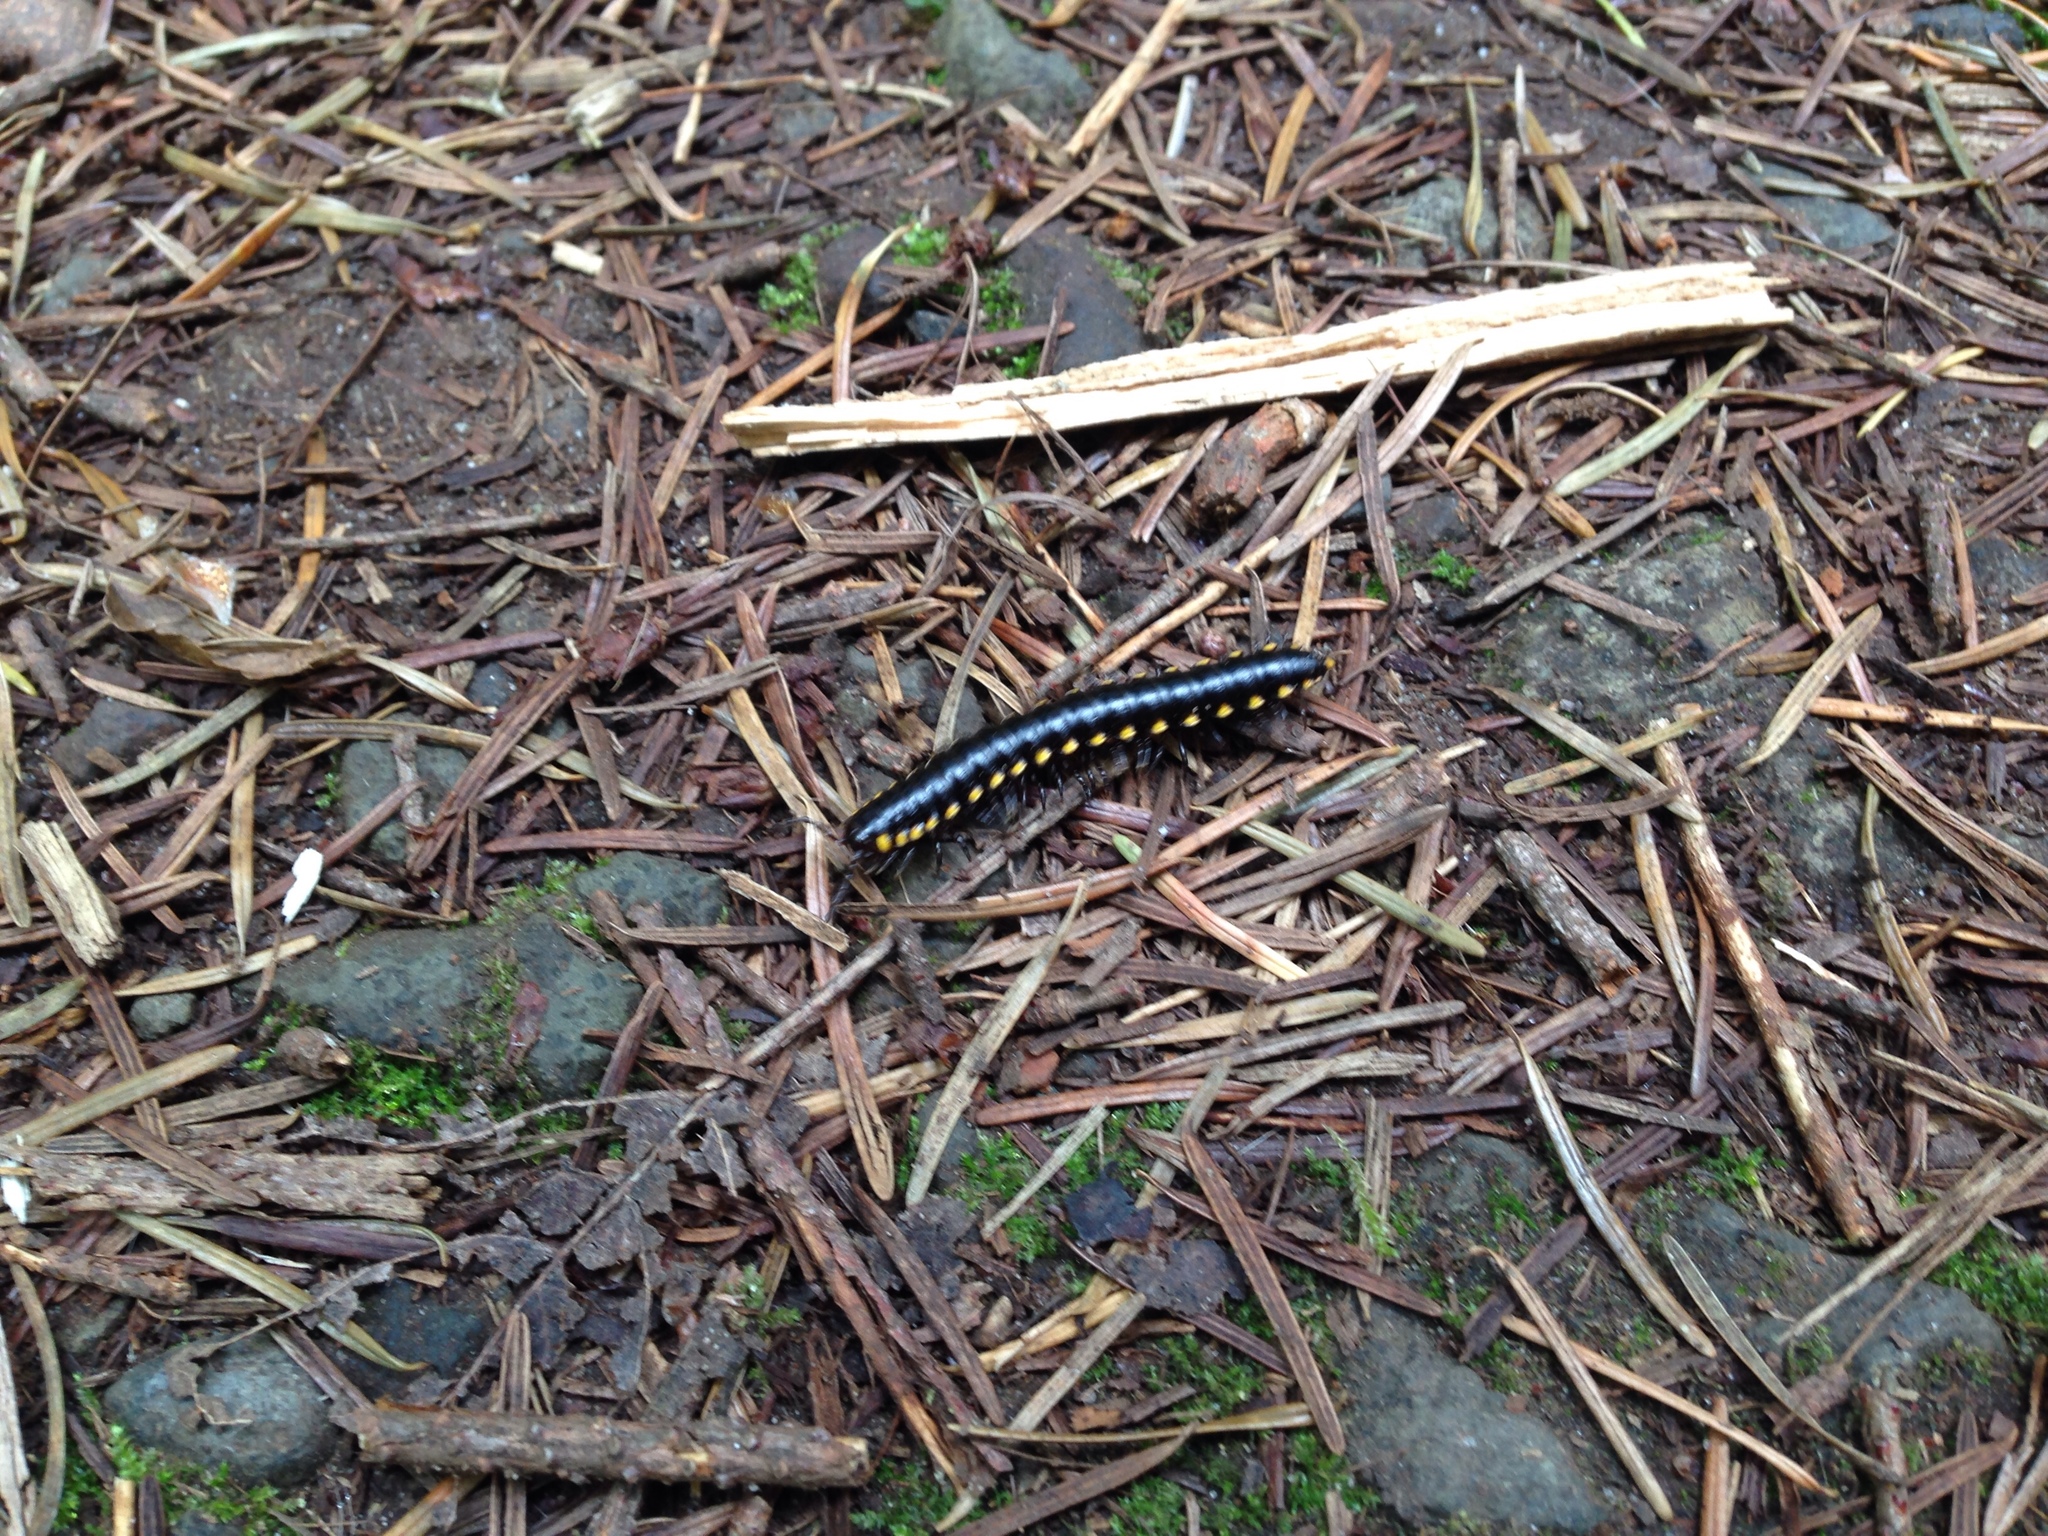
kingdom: Animalia
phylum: Arthropoda
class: Diplopoda
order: Polydesmida
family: Xystodesmidae
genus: Harpaphe
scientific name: Harpaphe haydeniana
